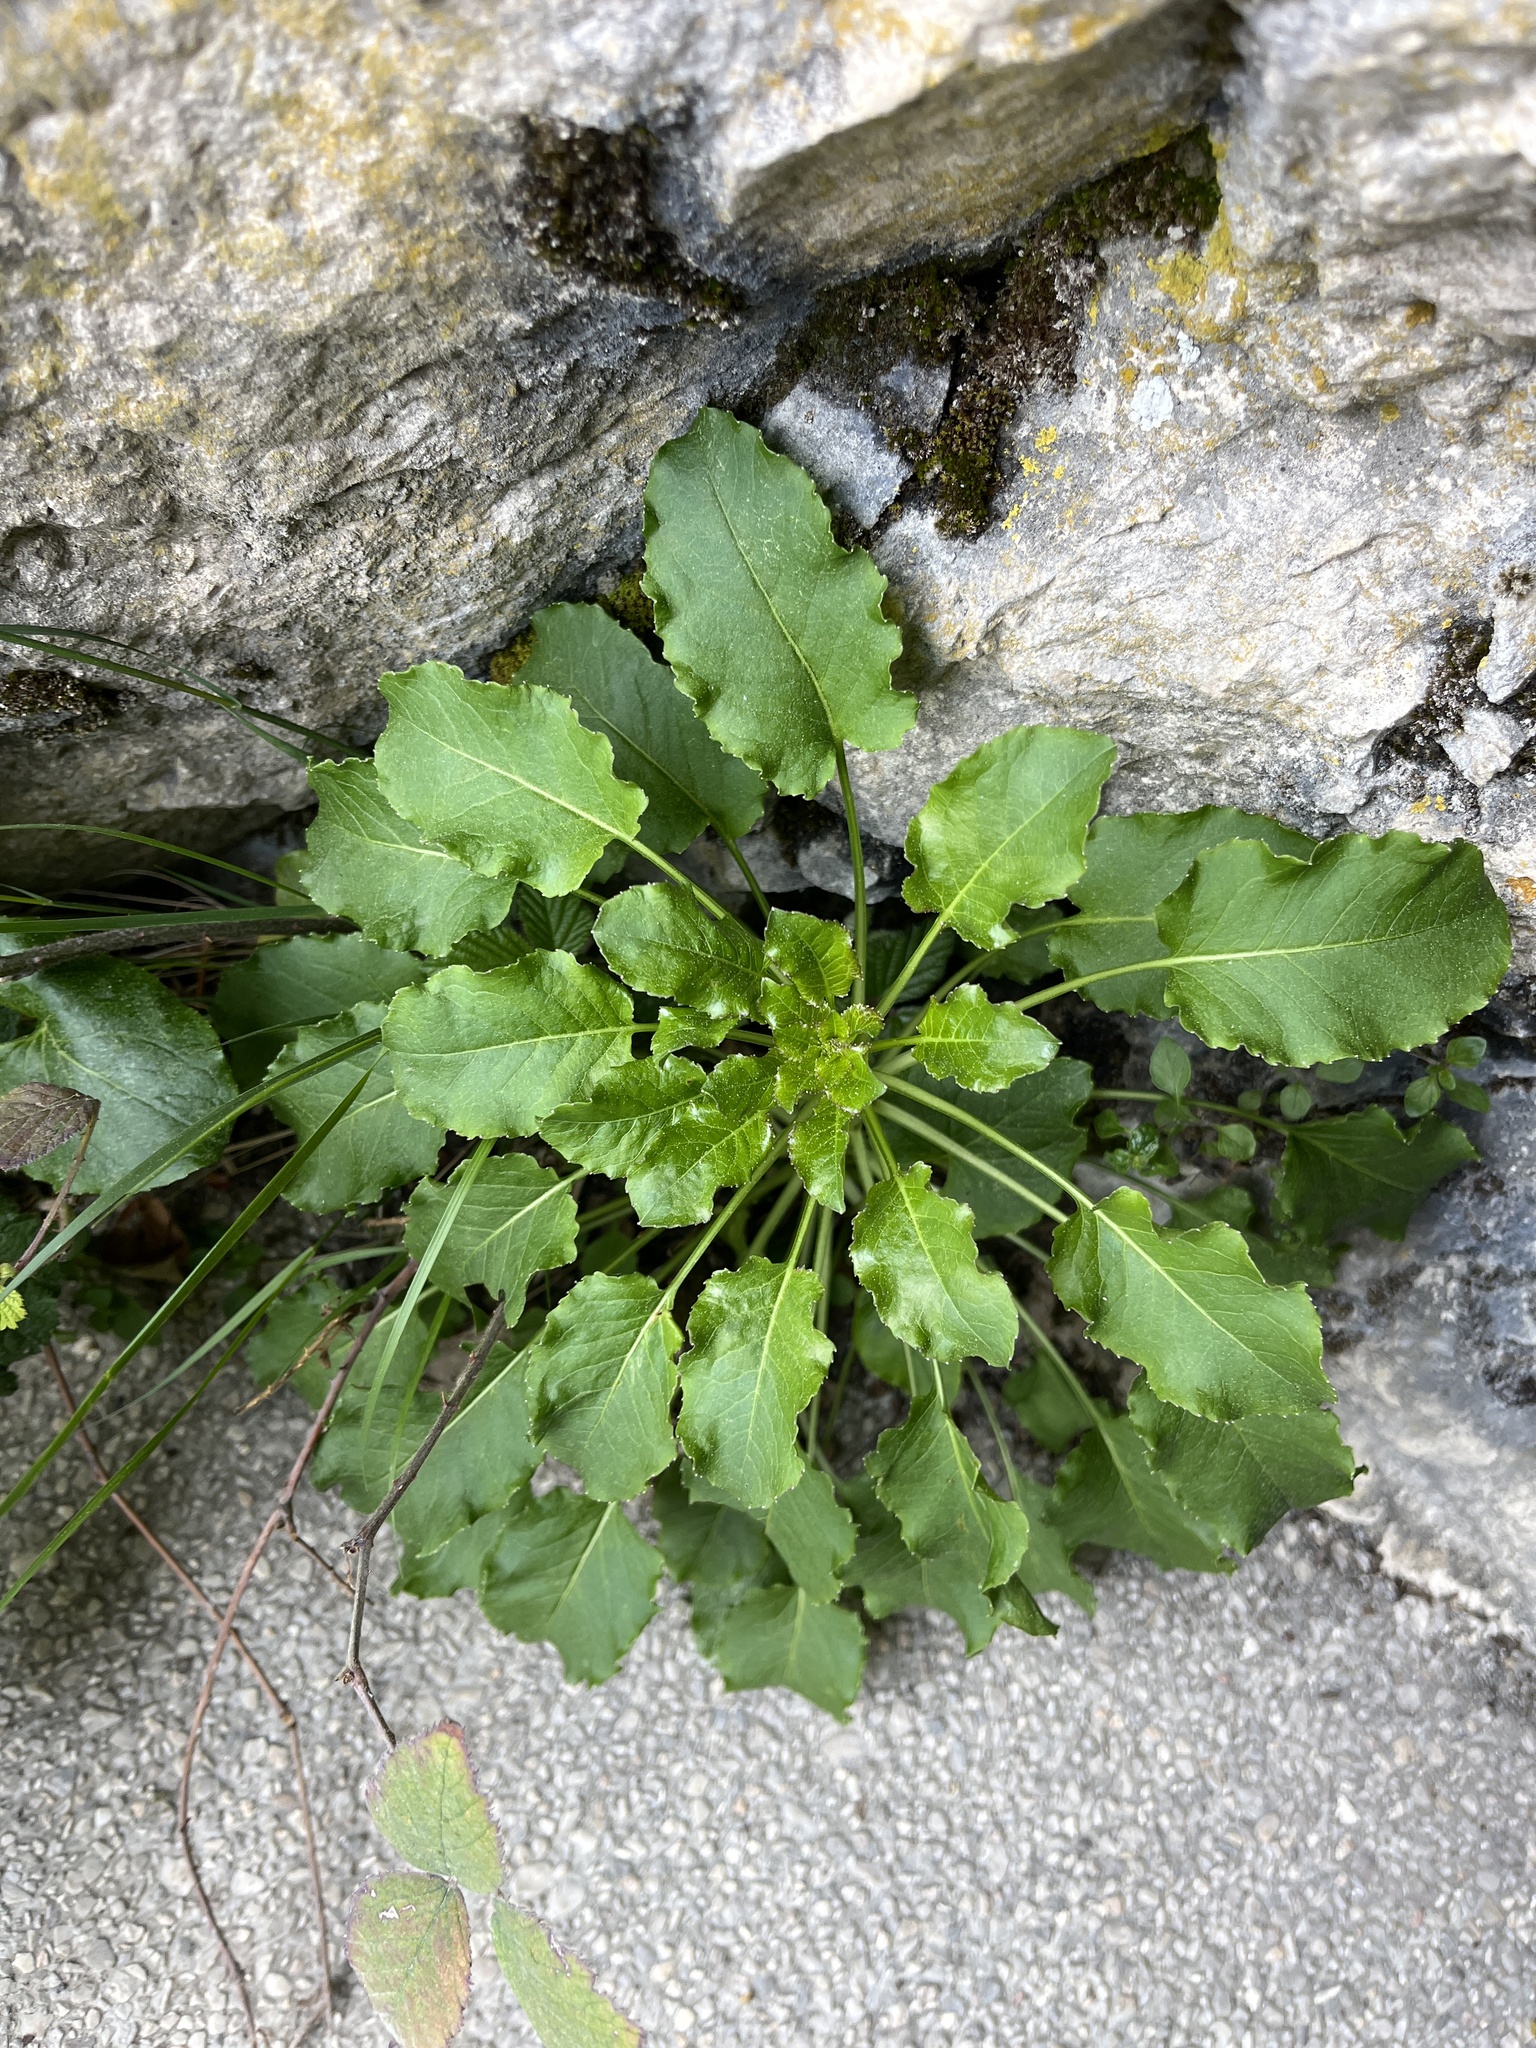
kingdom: Plantae
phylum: Tracheophyta
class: Magnoliopsida
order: Asterales
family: Campanulaceae
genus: Campanula
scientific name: Campanula pyramidalis
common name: Chimney bellflower
